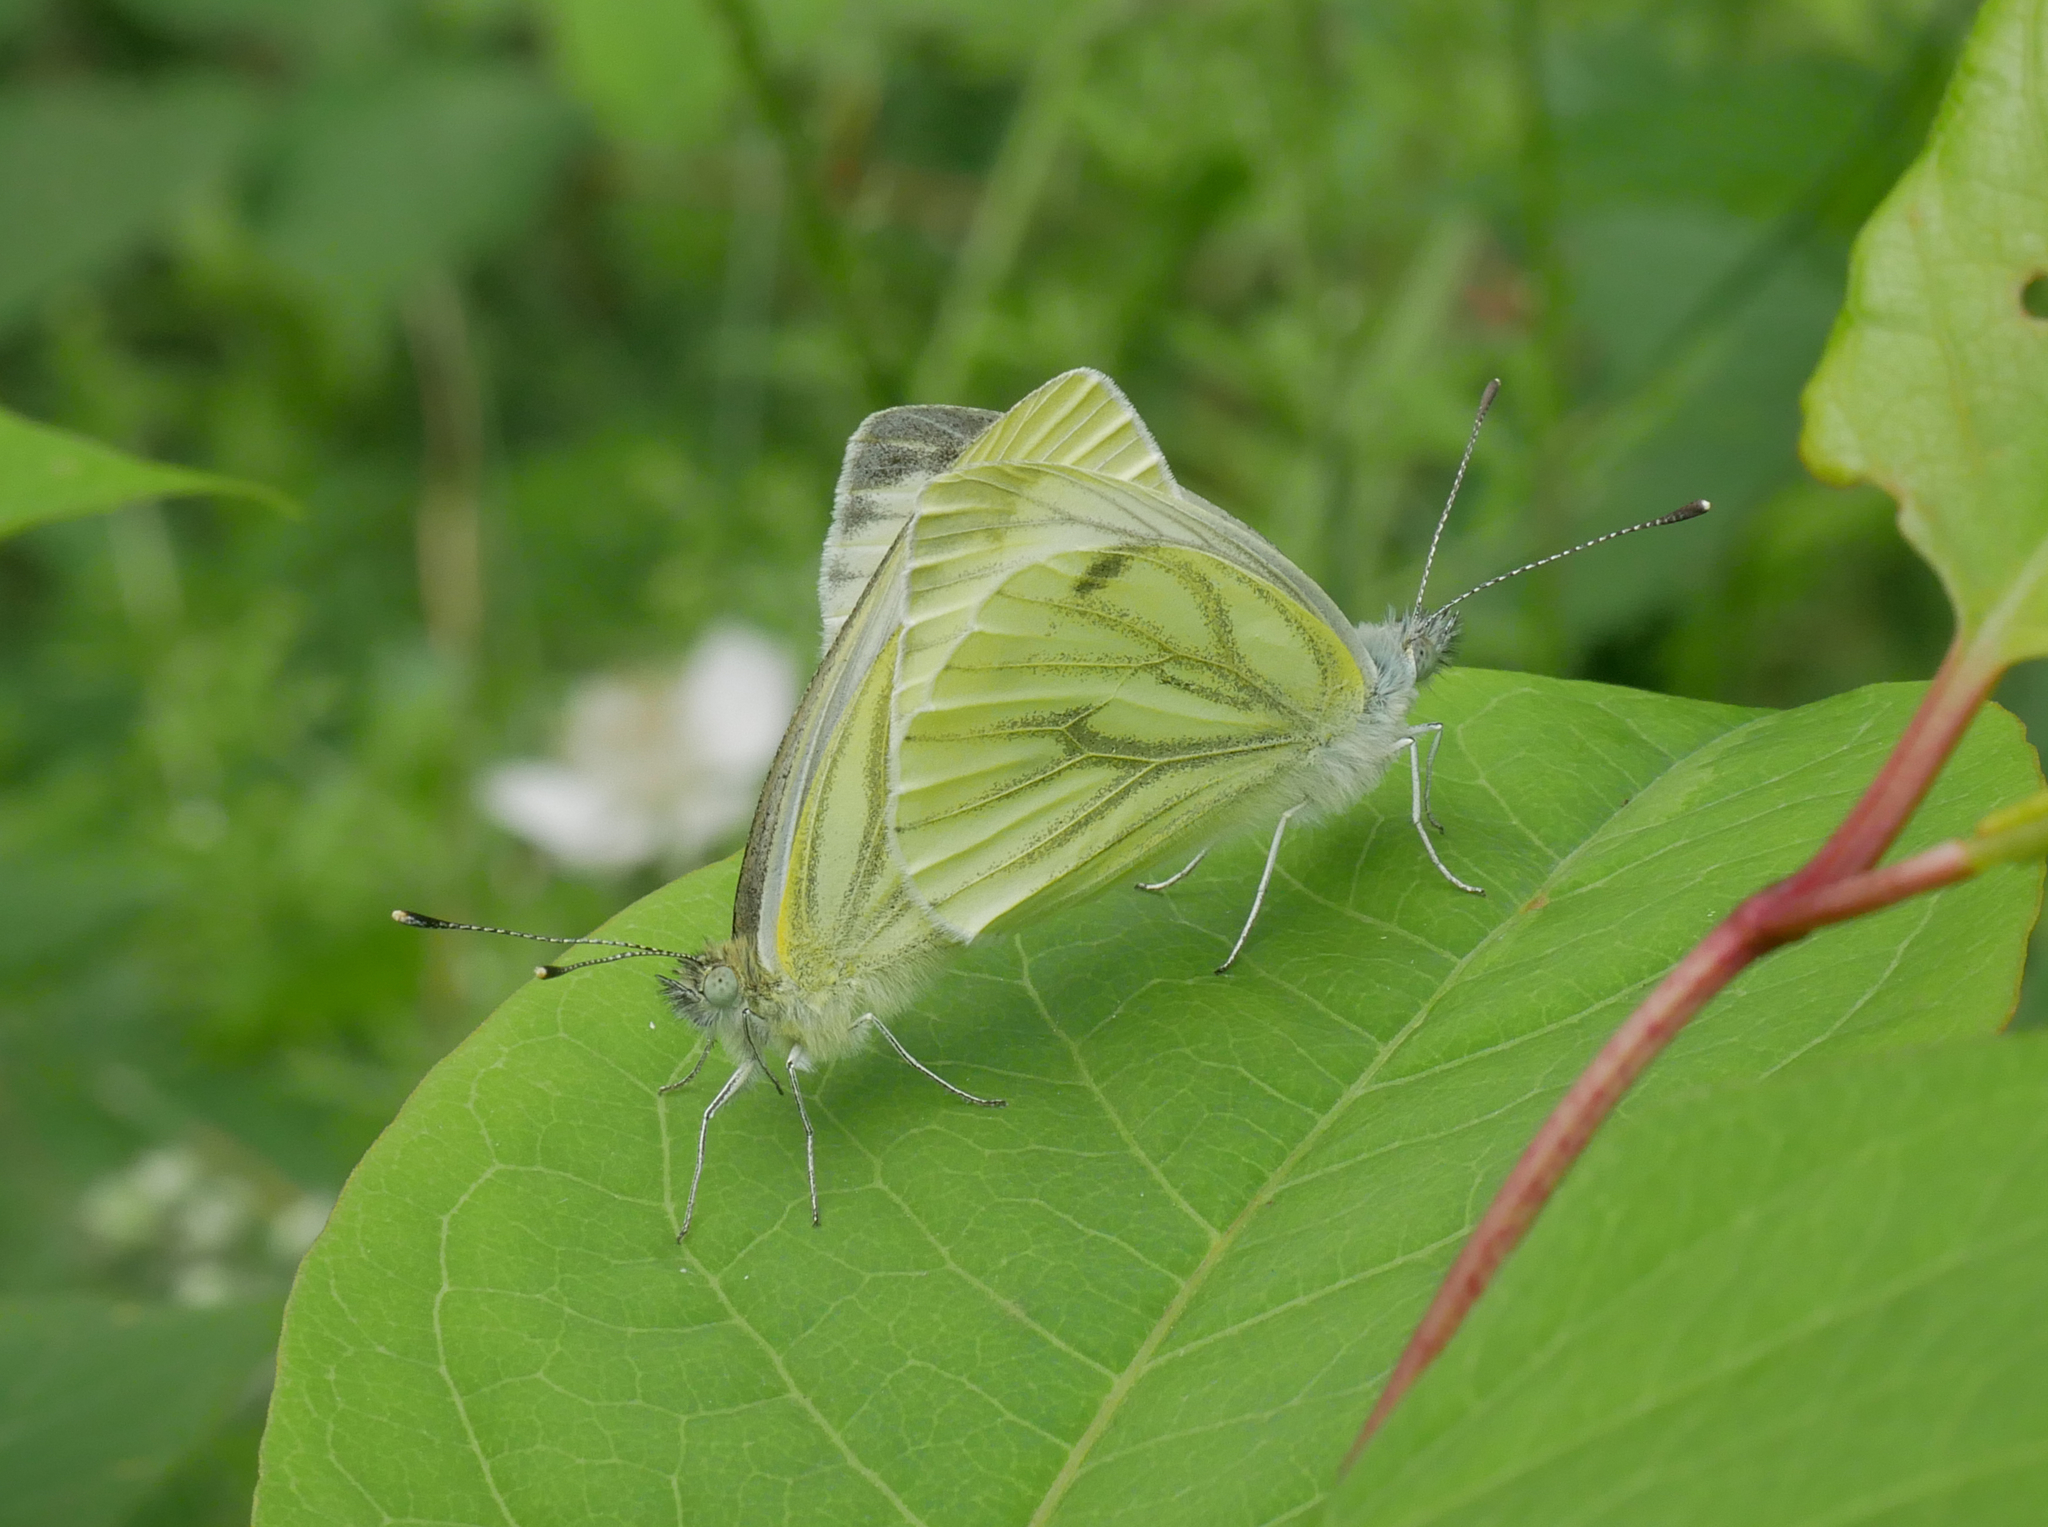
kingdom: Animalia
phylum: Arthropoda
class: Insecta
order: Lepidoptera
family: Pieridae
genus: Pieris
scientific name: Pieris napi
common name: Green-veined white
